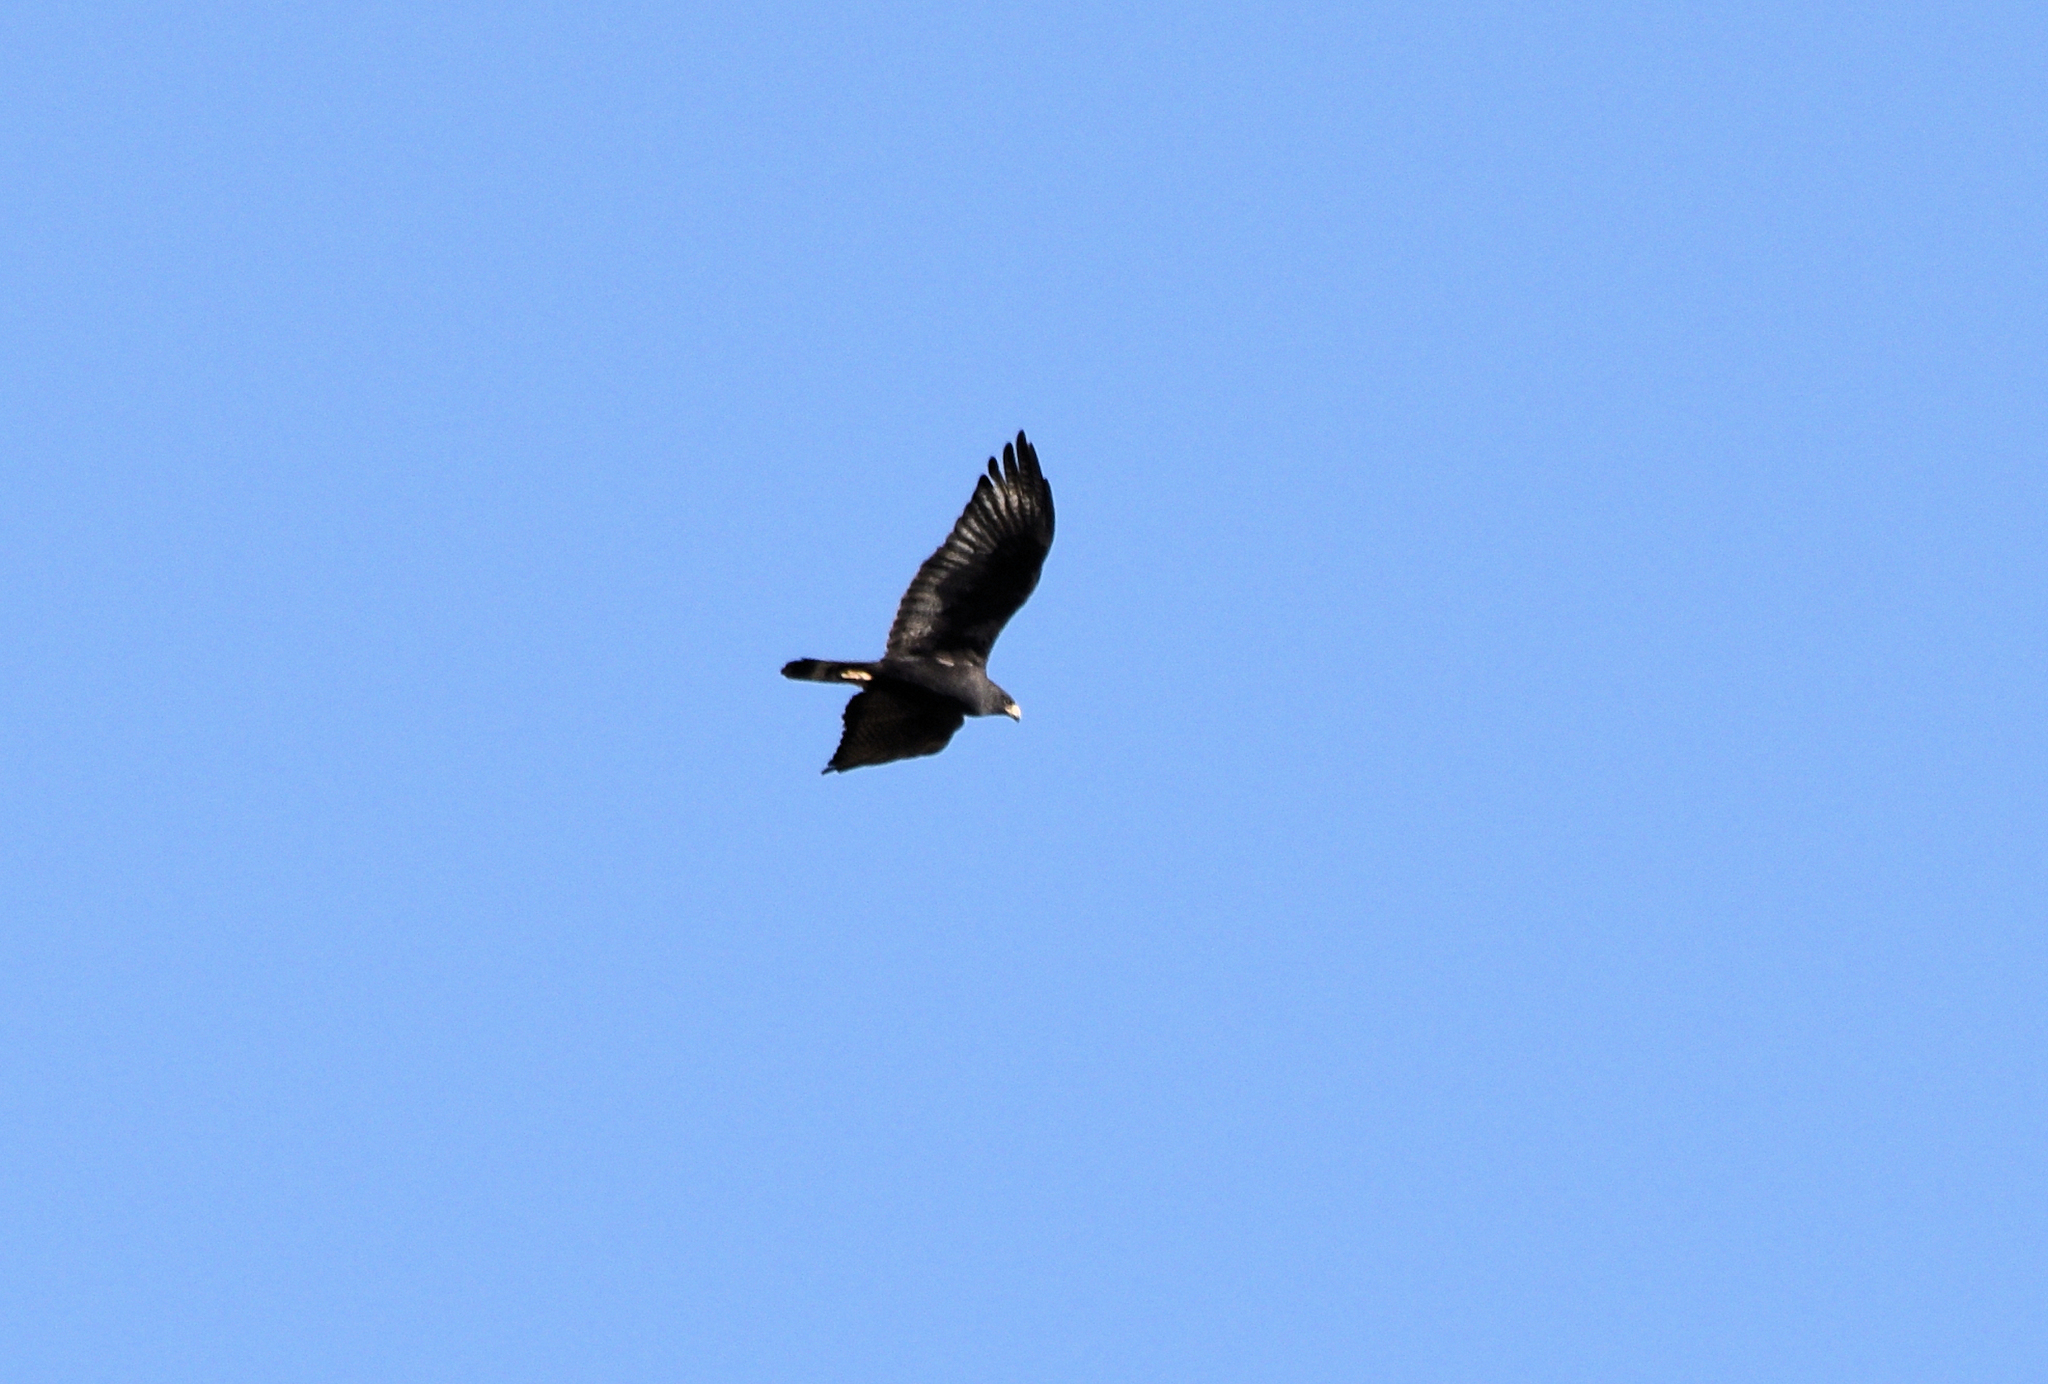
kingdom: Animalia
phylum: Chordata
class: Aves
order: Accipitriformes
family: Accipitridae
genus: Buteo
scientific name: Buteo albonotatus
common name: Zone-tailed hawk
